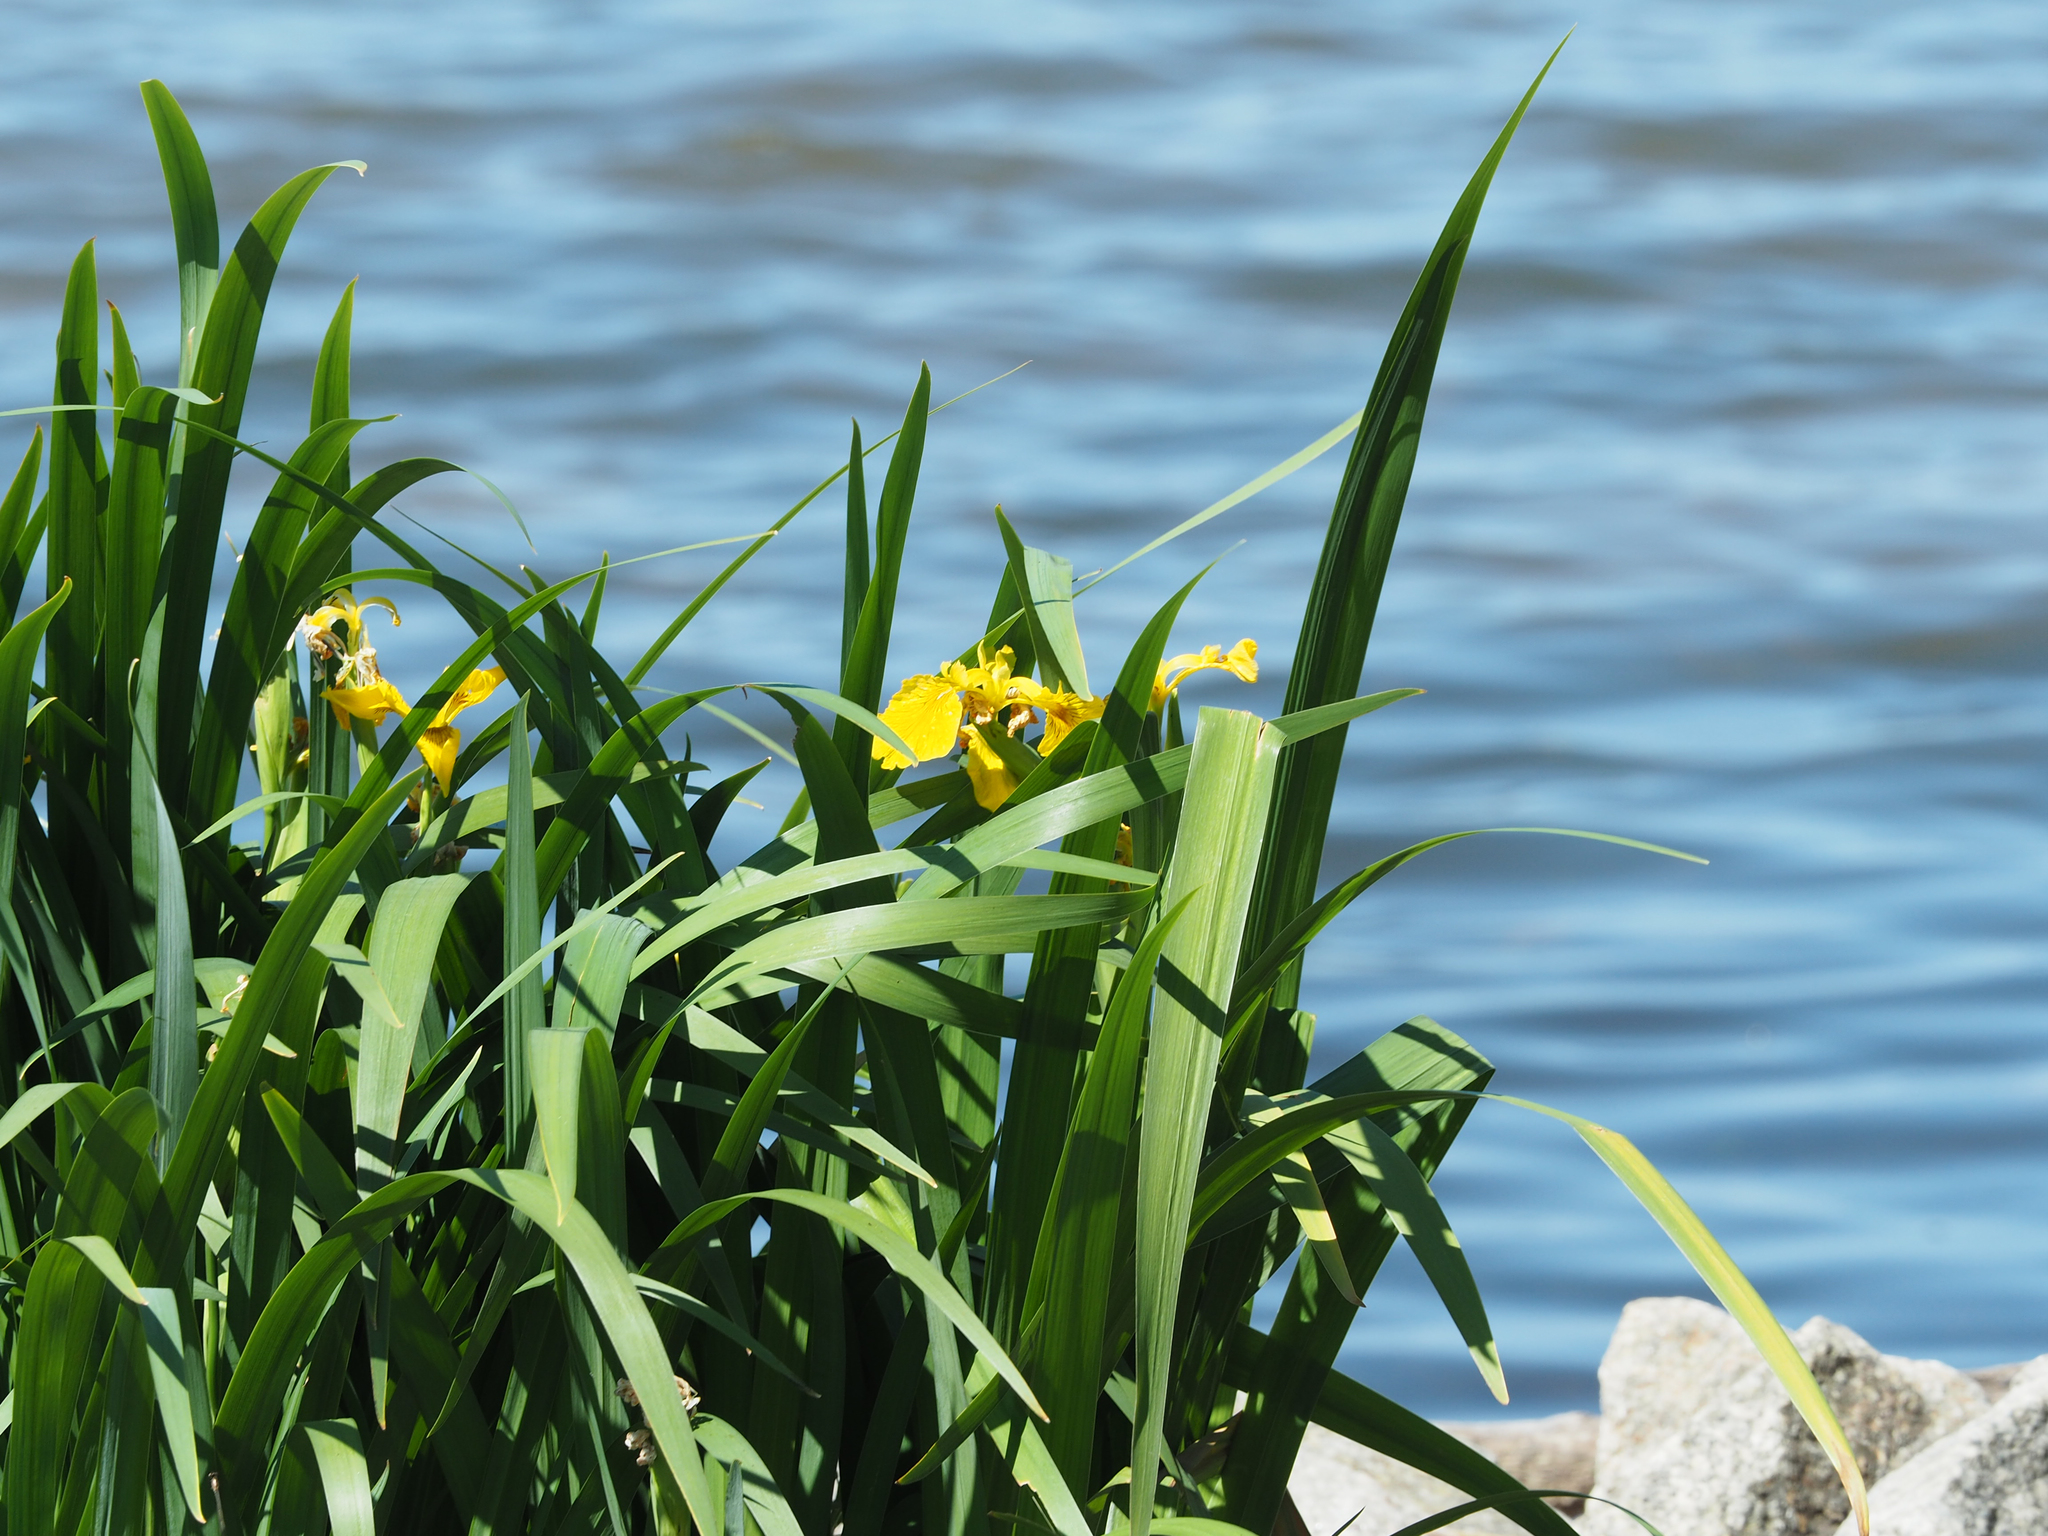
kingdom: Plantae
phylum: Tracheophyta
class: Liliopsida
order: Asparagales
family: Iridaceae
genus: Iris
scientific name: Iris pseudacorus
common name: Yellow flag
